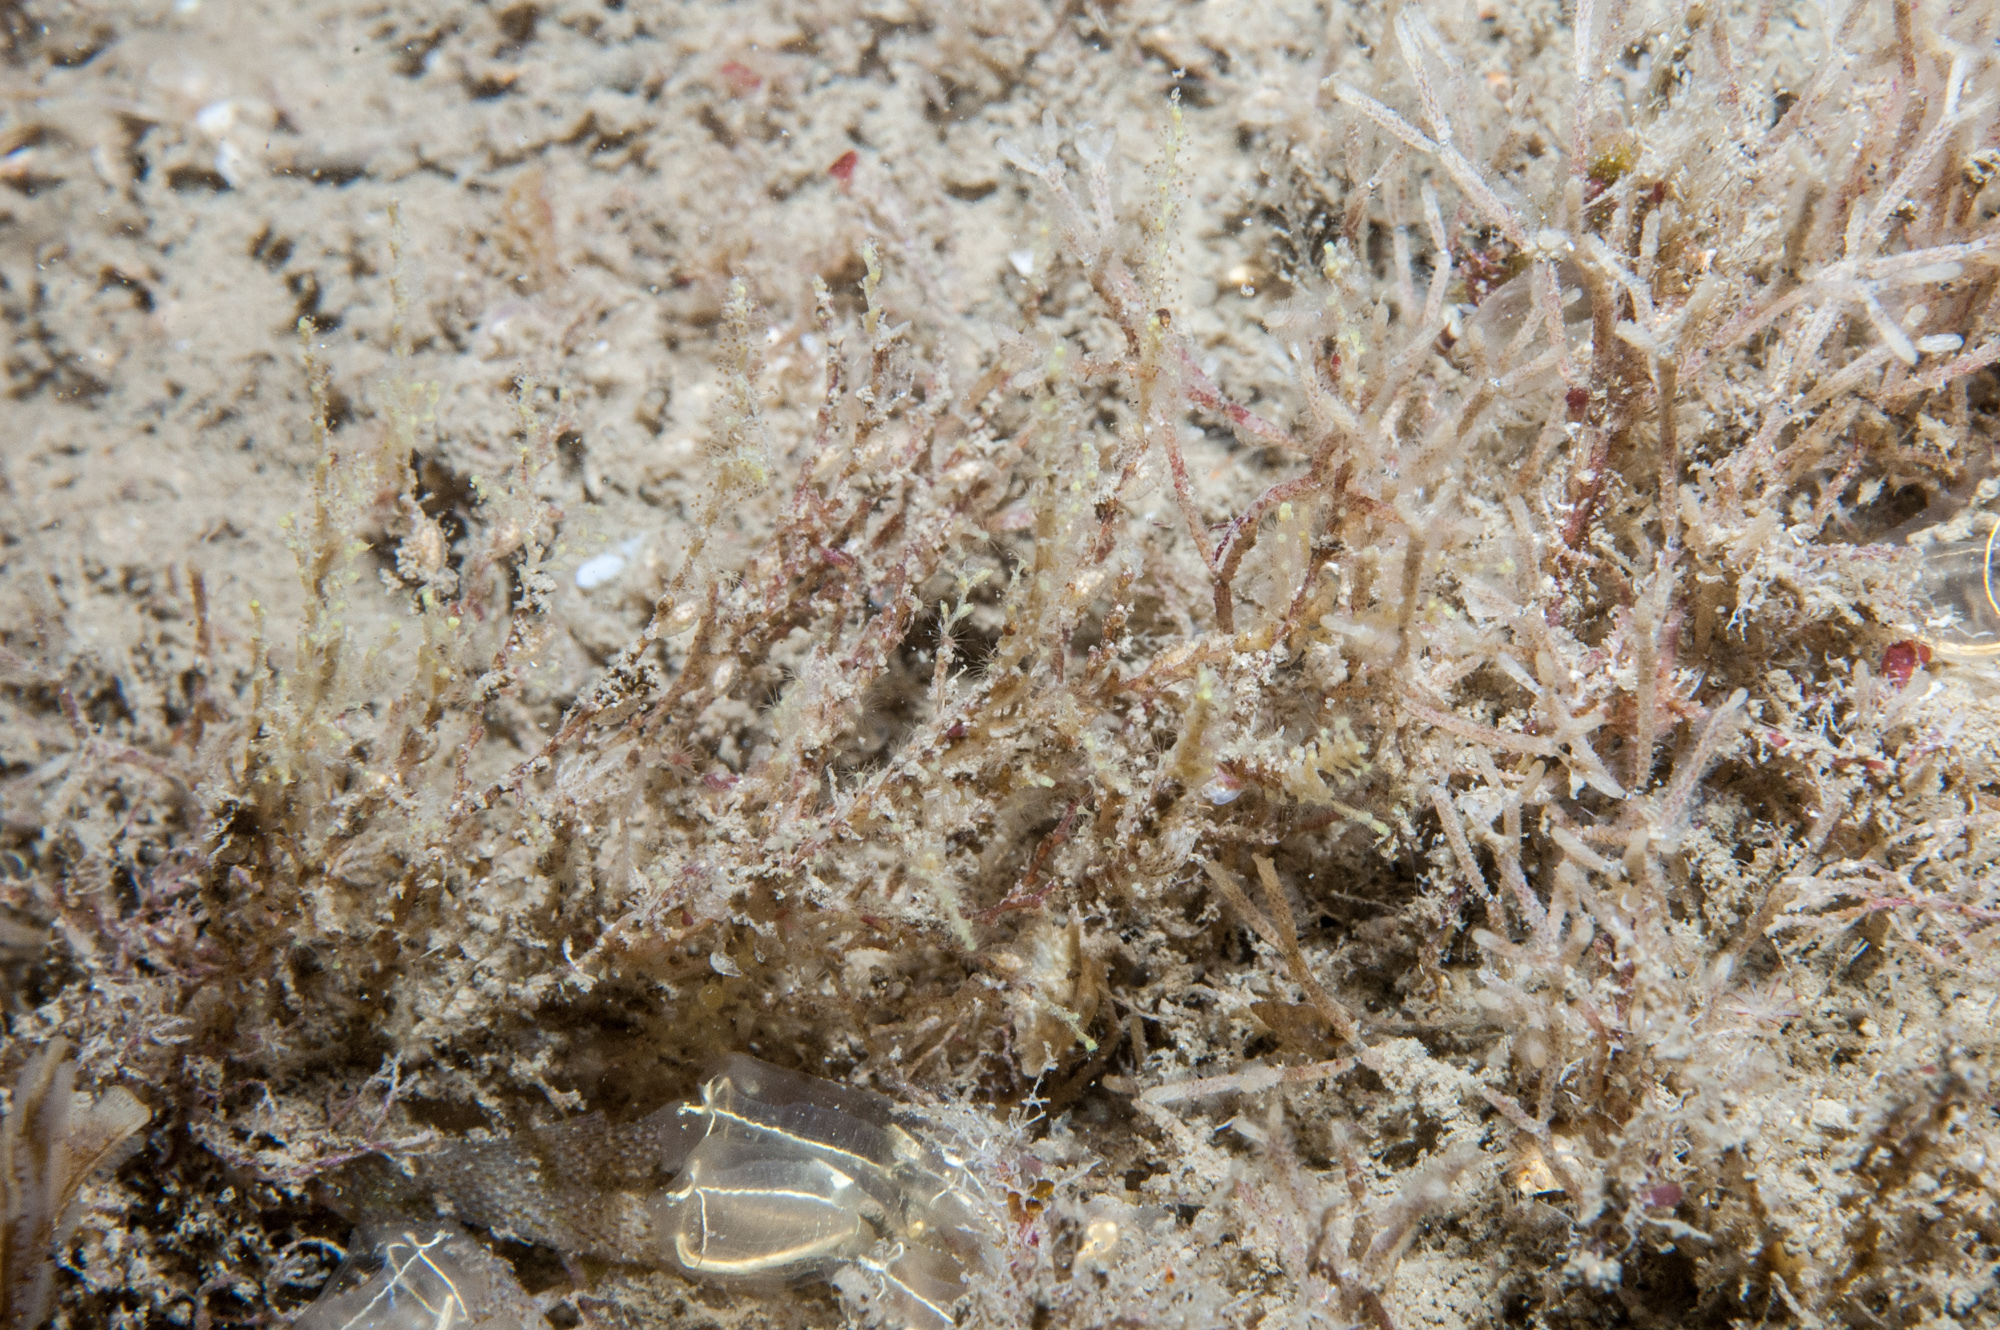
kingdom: Animalia
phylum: Cnidaria
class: Hydrozoa
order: Leptothecata
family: Sertularellidae
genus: Sertularella
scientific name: Sertularella polyzonias
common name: Great tooth hydroid
